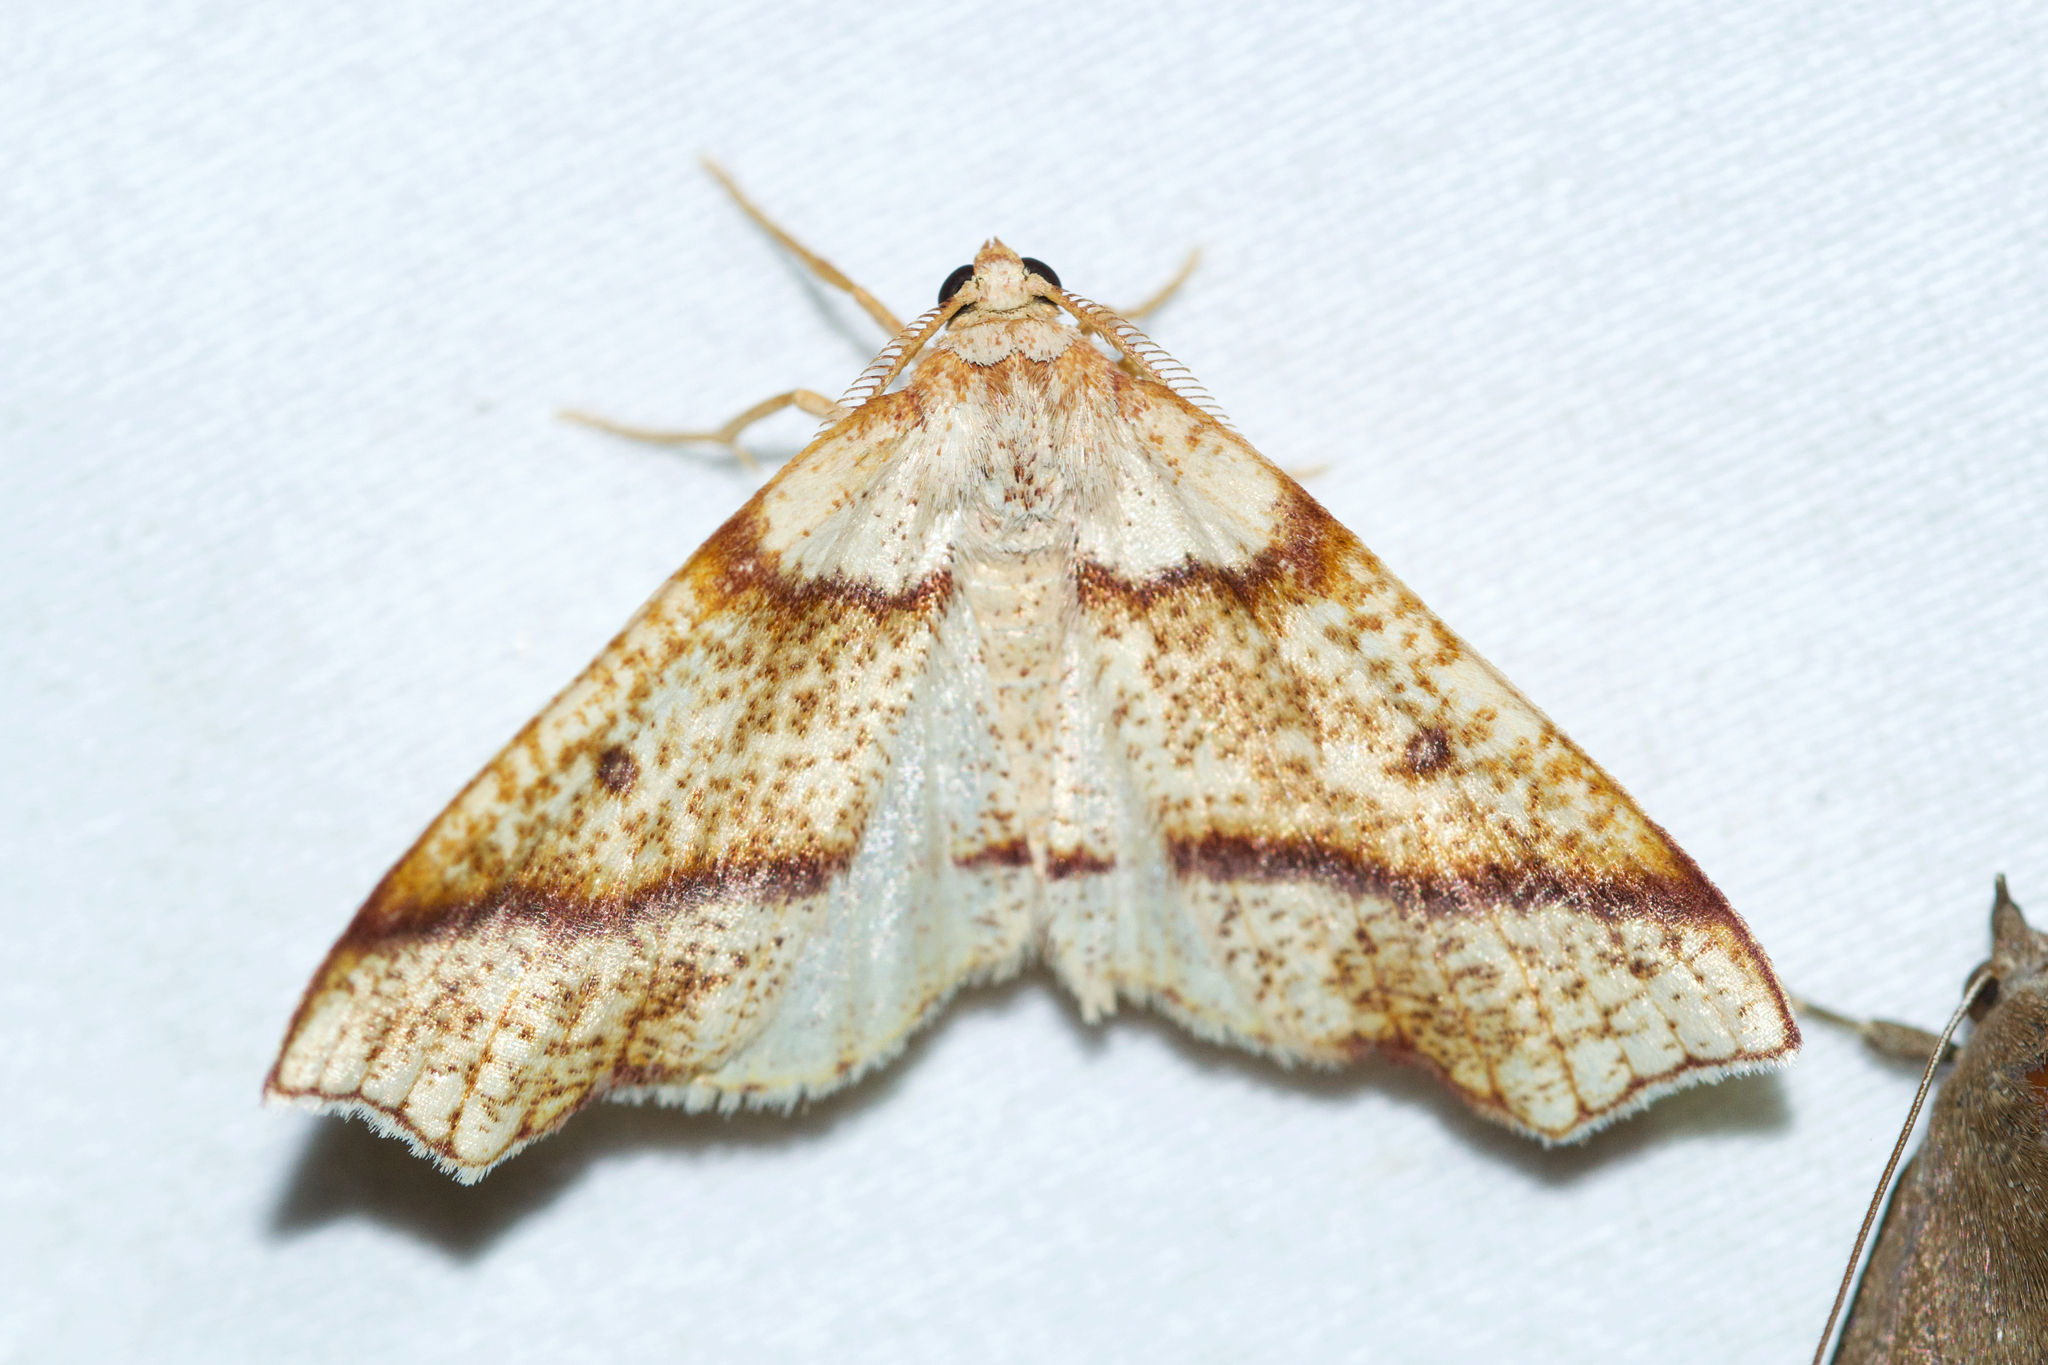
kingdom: Animalia
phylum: Arthropoda
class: Insecta
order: Lepidoptera
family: Geometridae
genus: Plagodis
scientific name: Plagodis alcoolaria
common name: Hollow-spotted plagodis
